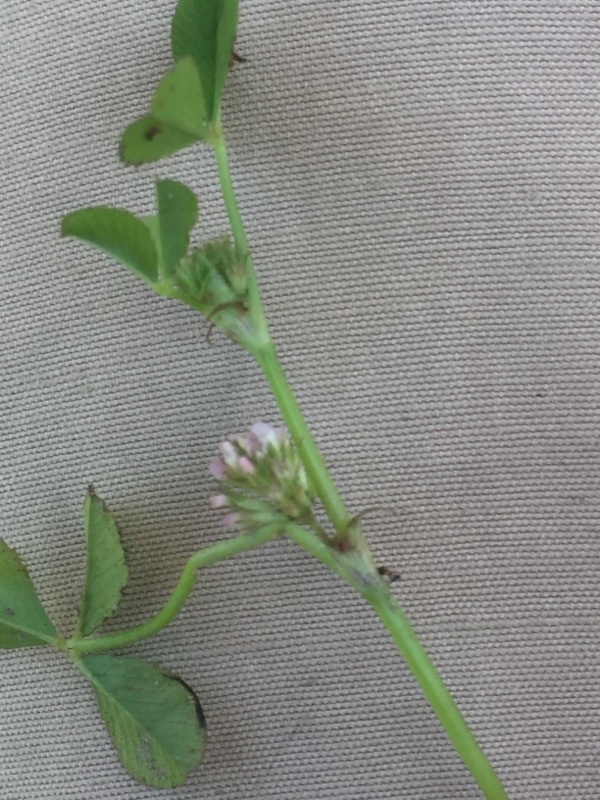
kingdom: Plantae
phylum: Tracheophyta
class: Magnoliopsida
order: Fabales
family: Fabaceae
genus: Trifolium
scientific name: Trifolium glomeratum
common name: Clustered clover
